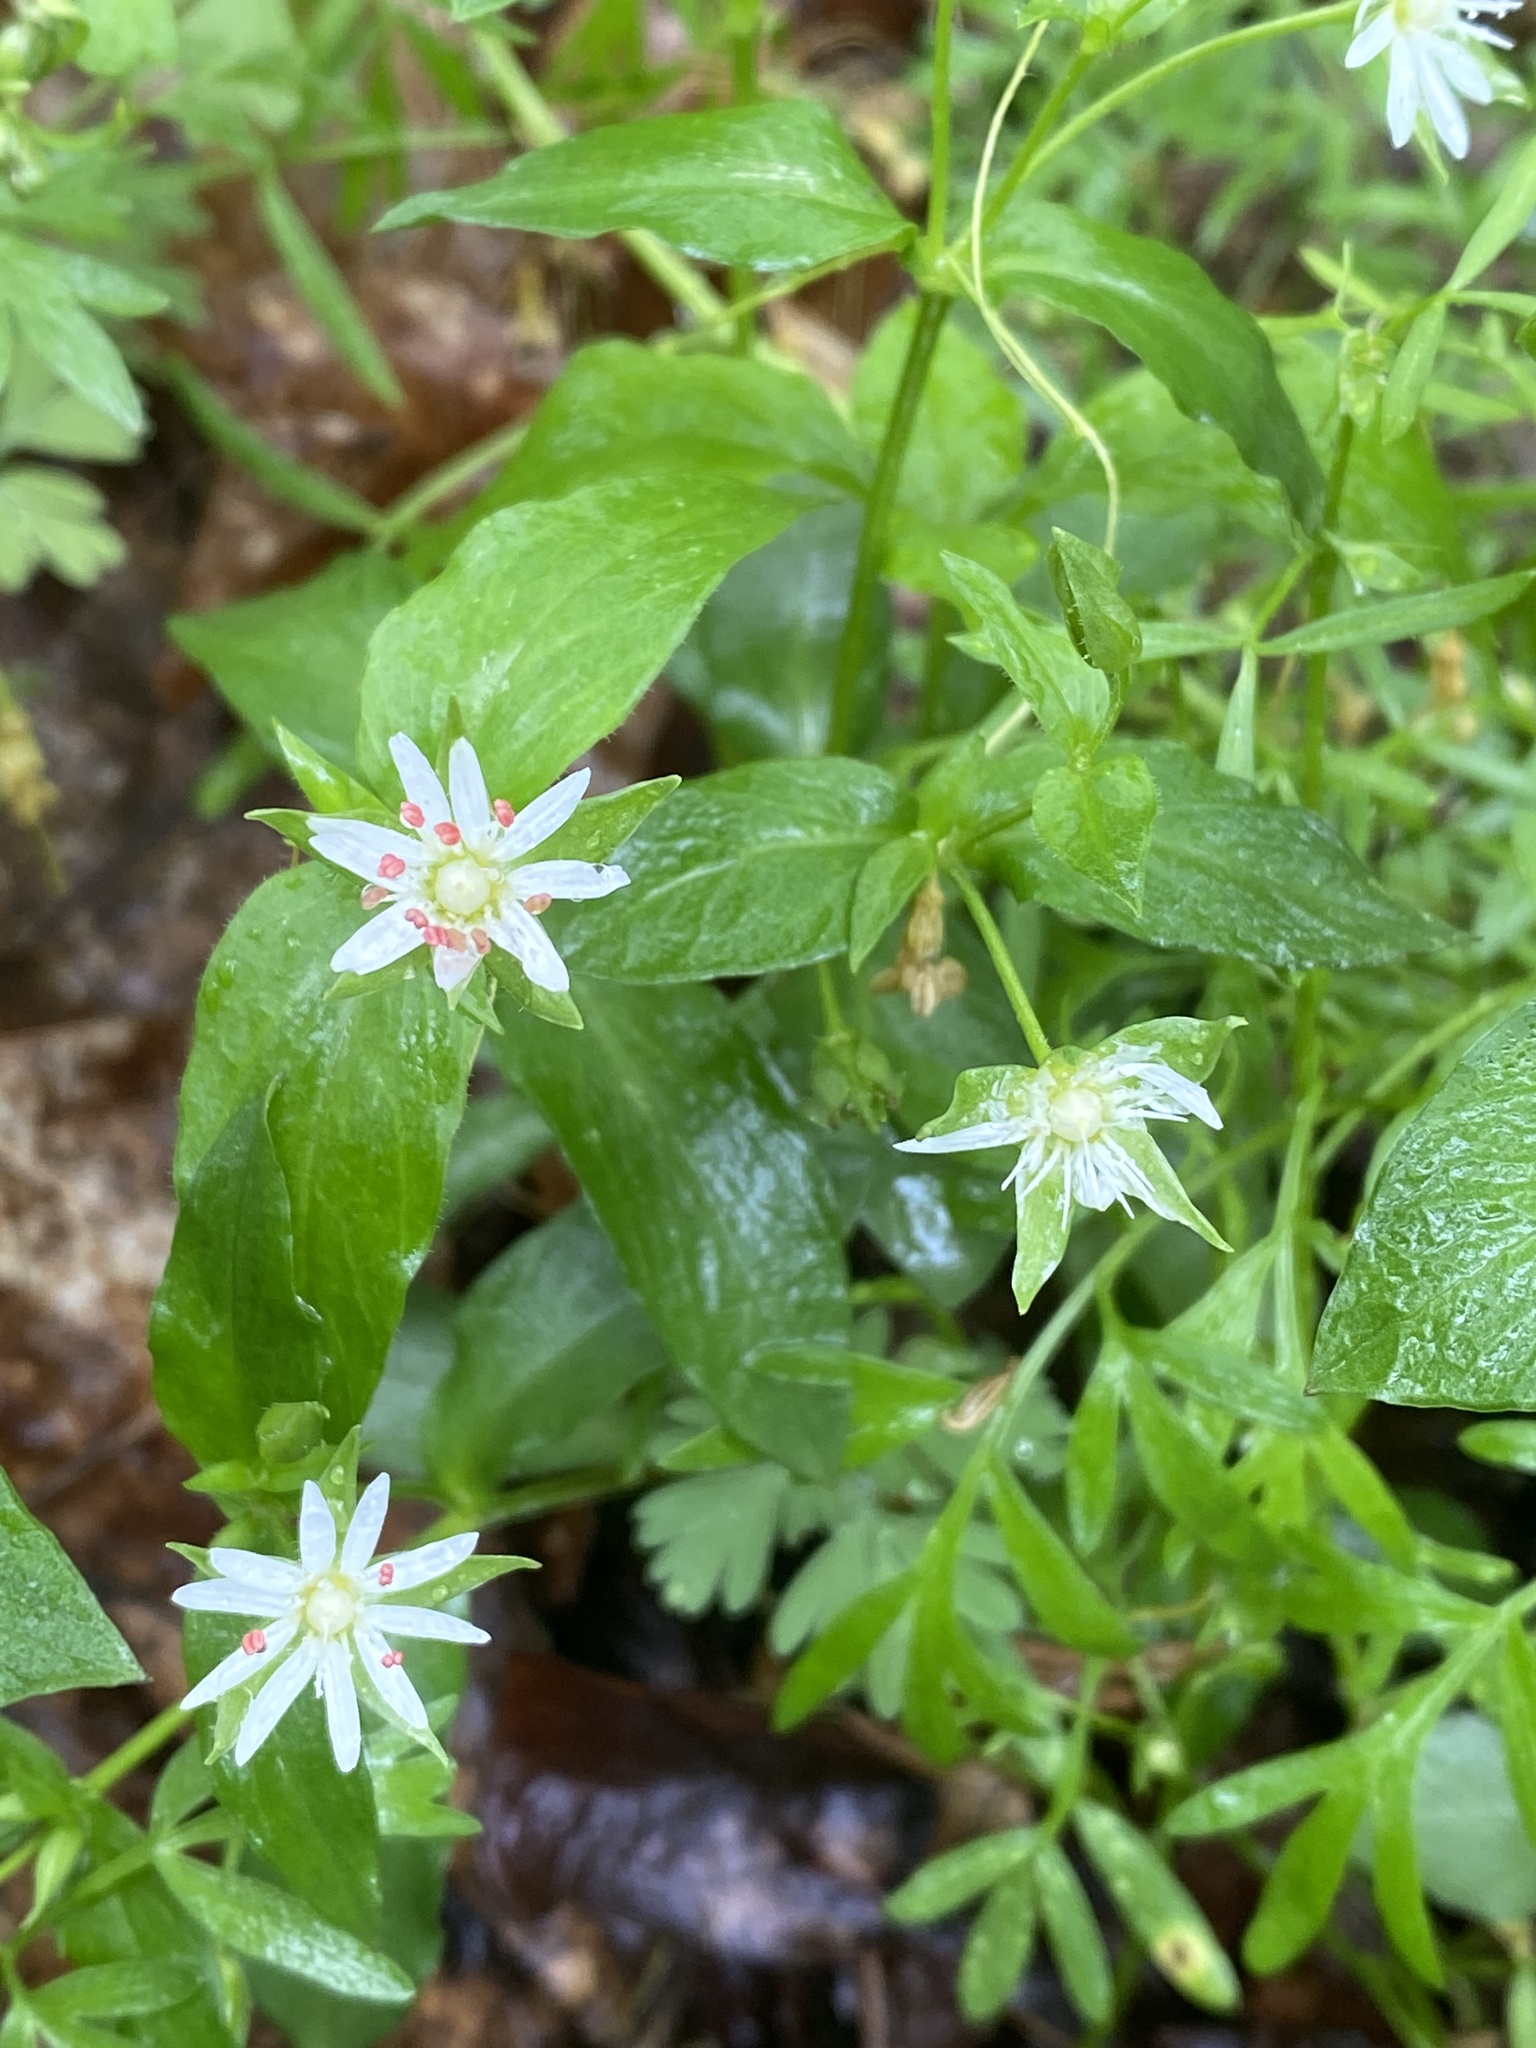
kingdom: Plantae
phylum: Tracheophyta
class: Magnoliopsida
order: Caryophyllales
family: Caryophyllaceae
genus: Stellaria
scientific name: Stellaria corei
